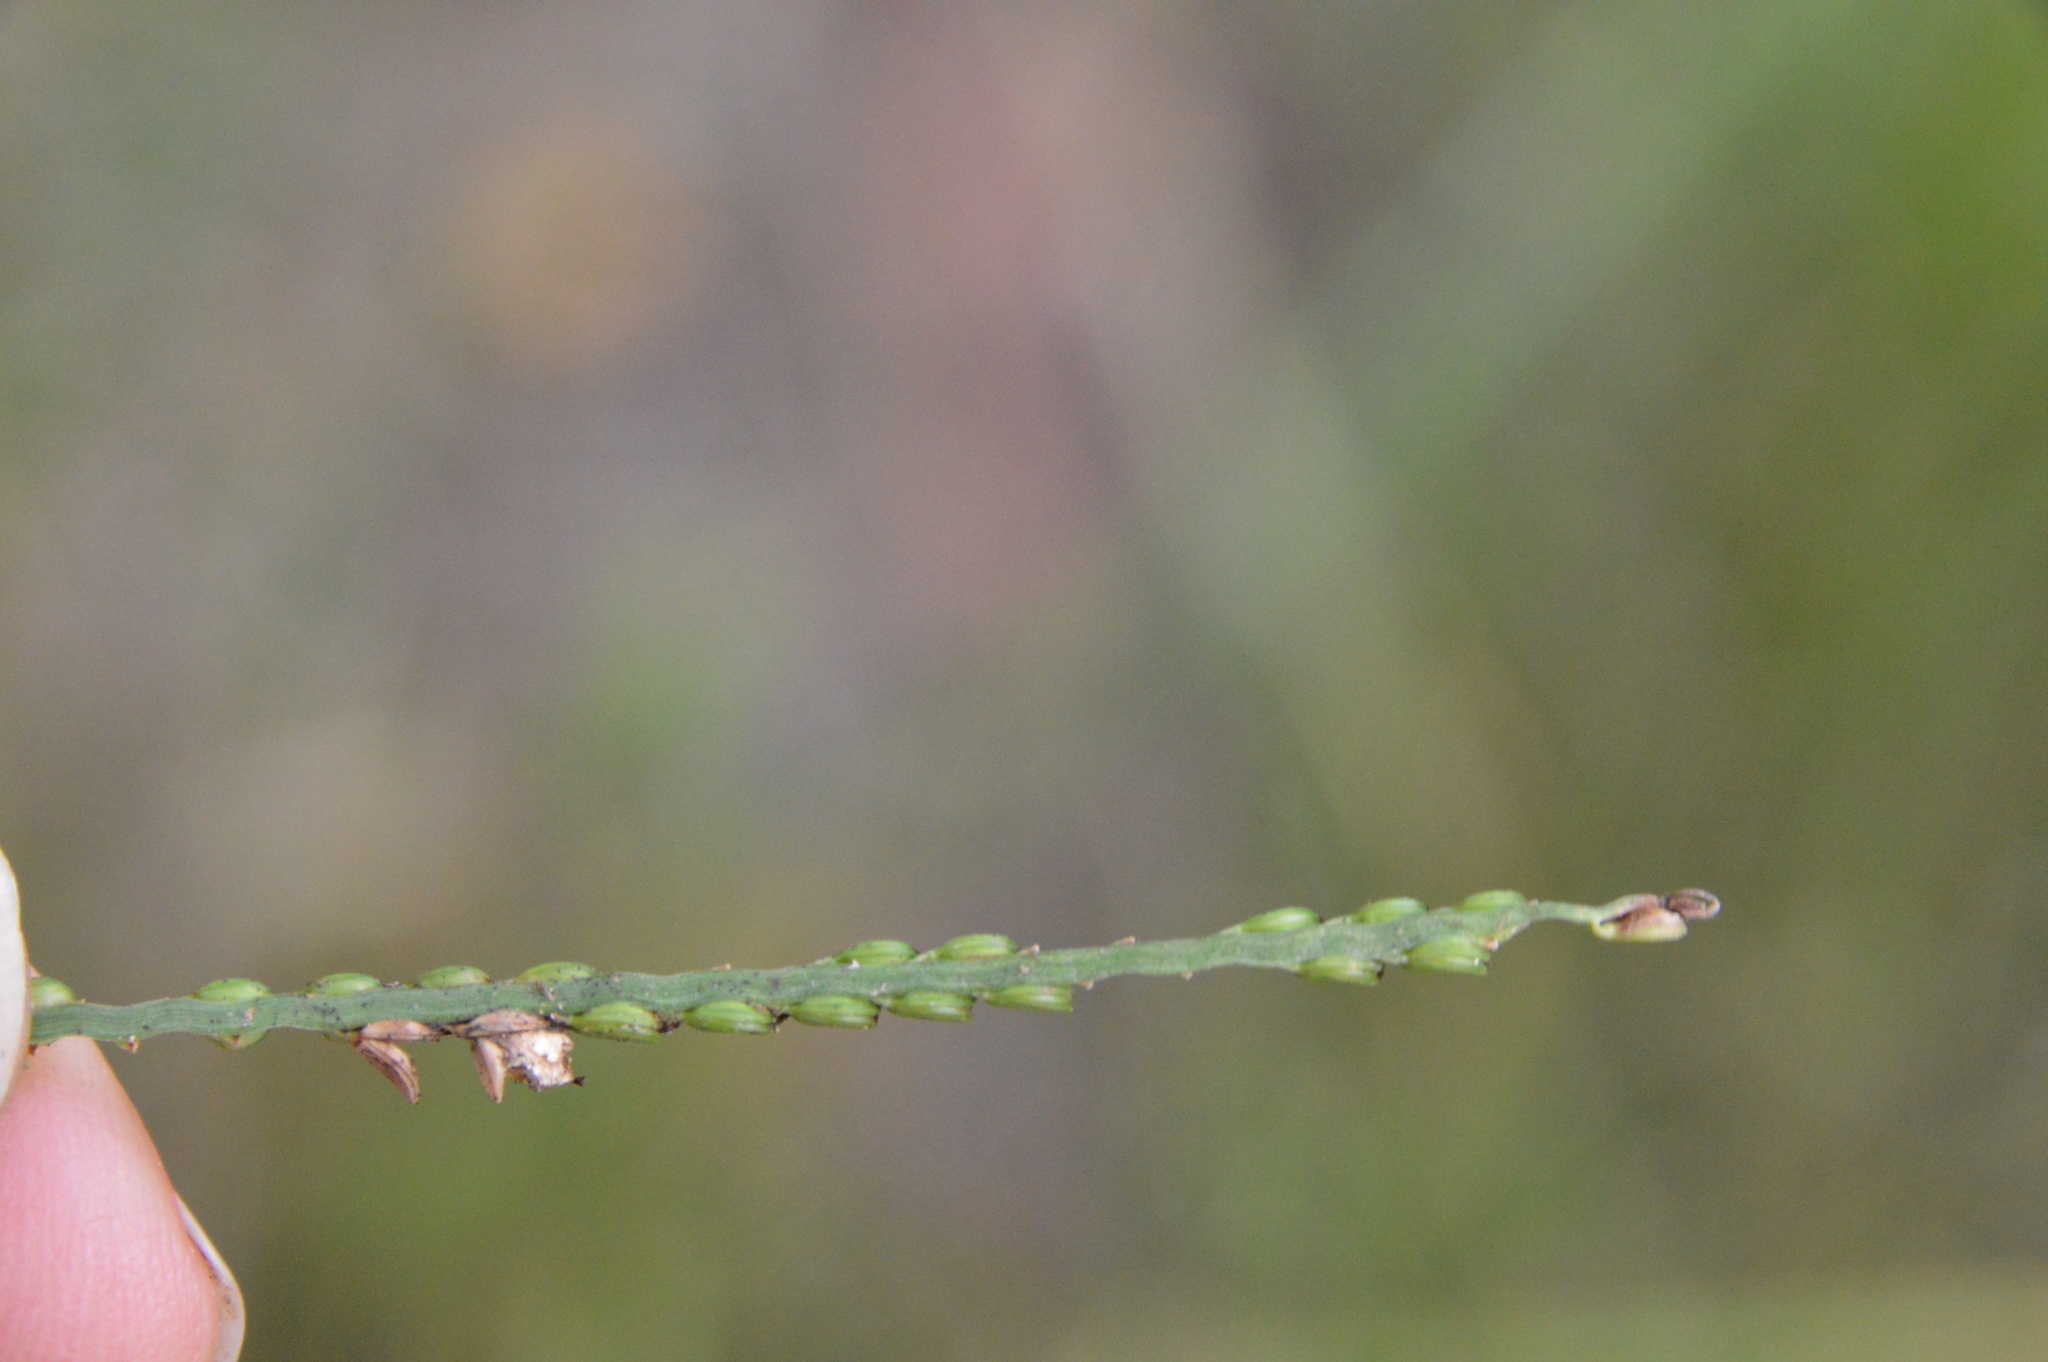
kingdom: Plantae
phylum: Tracheophyta
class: Liliopsida
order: Poales
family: Poaceae
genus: Paspalum
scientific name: Paspalum laeve
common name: Field paspalum
